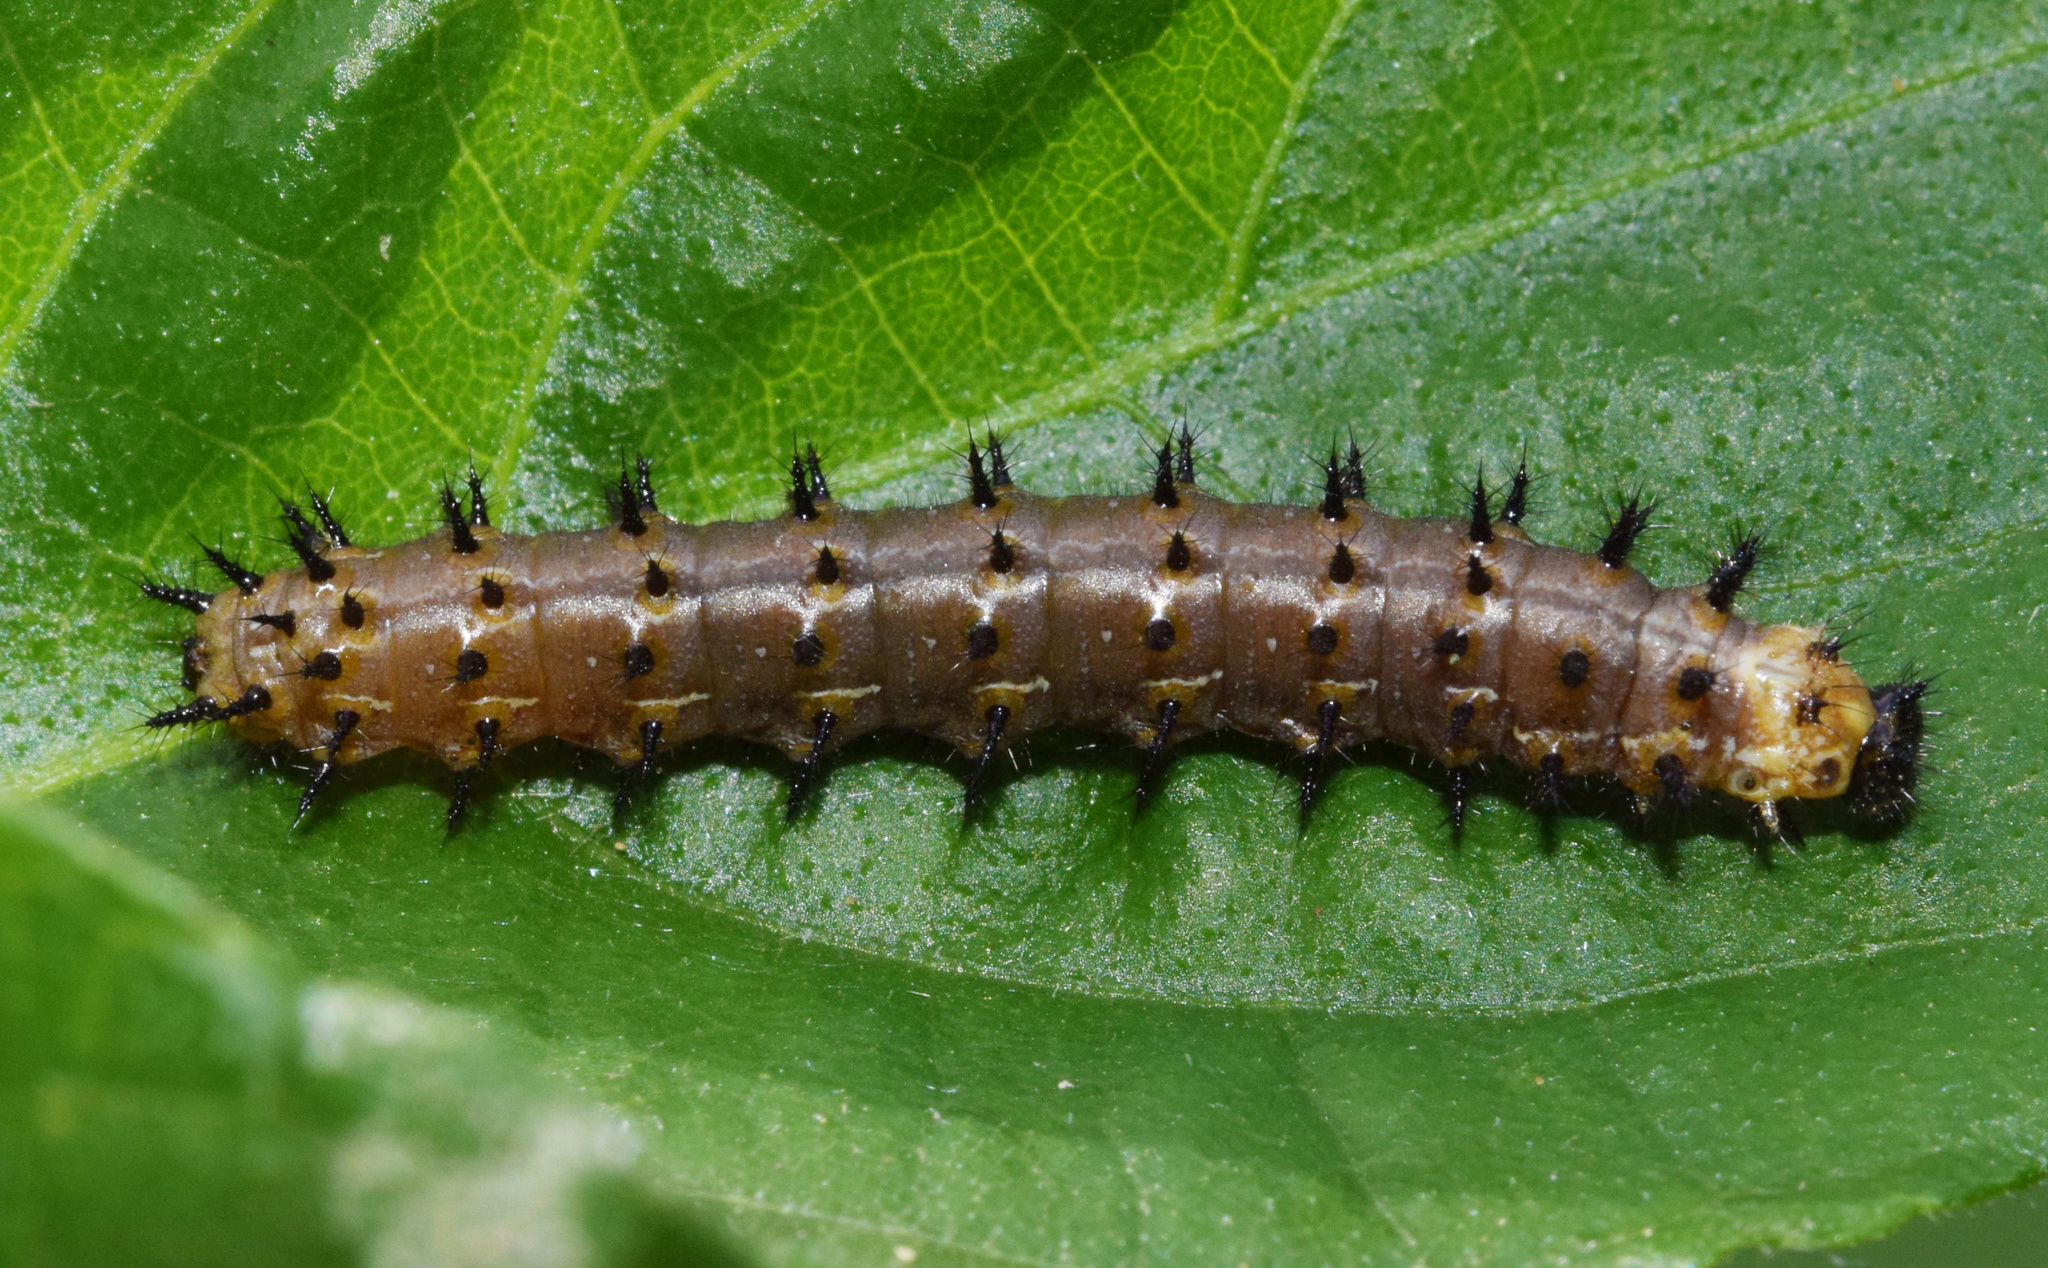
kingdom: Animalia
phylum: Arthropoda
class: Insecta
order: Lepidoptera
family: Nymphalidae
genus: Junonia
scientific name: Junonia oenone
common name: Dark blue pansy
